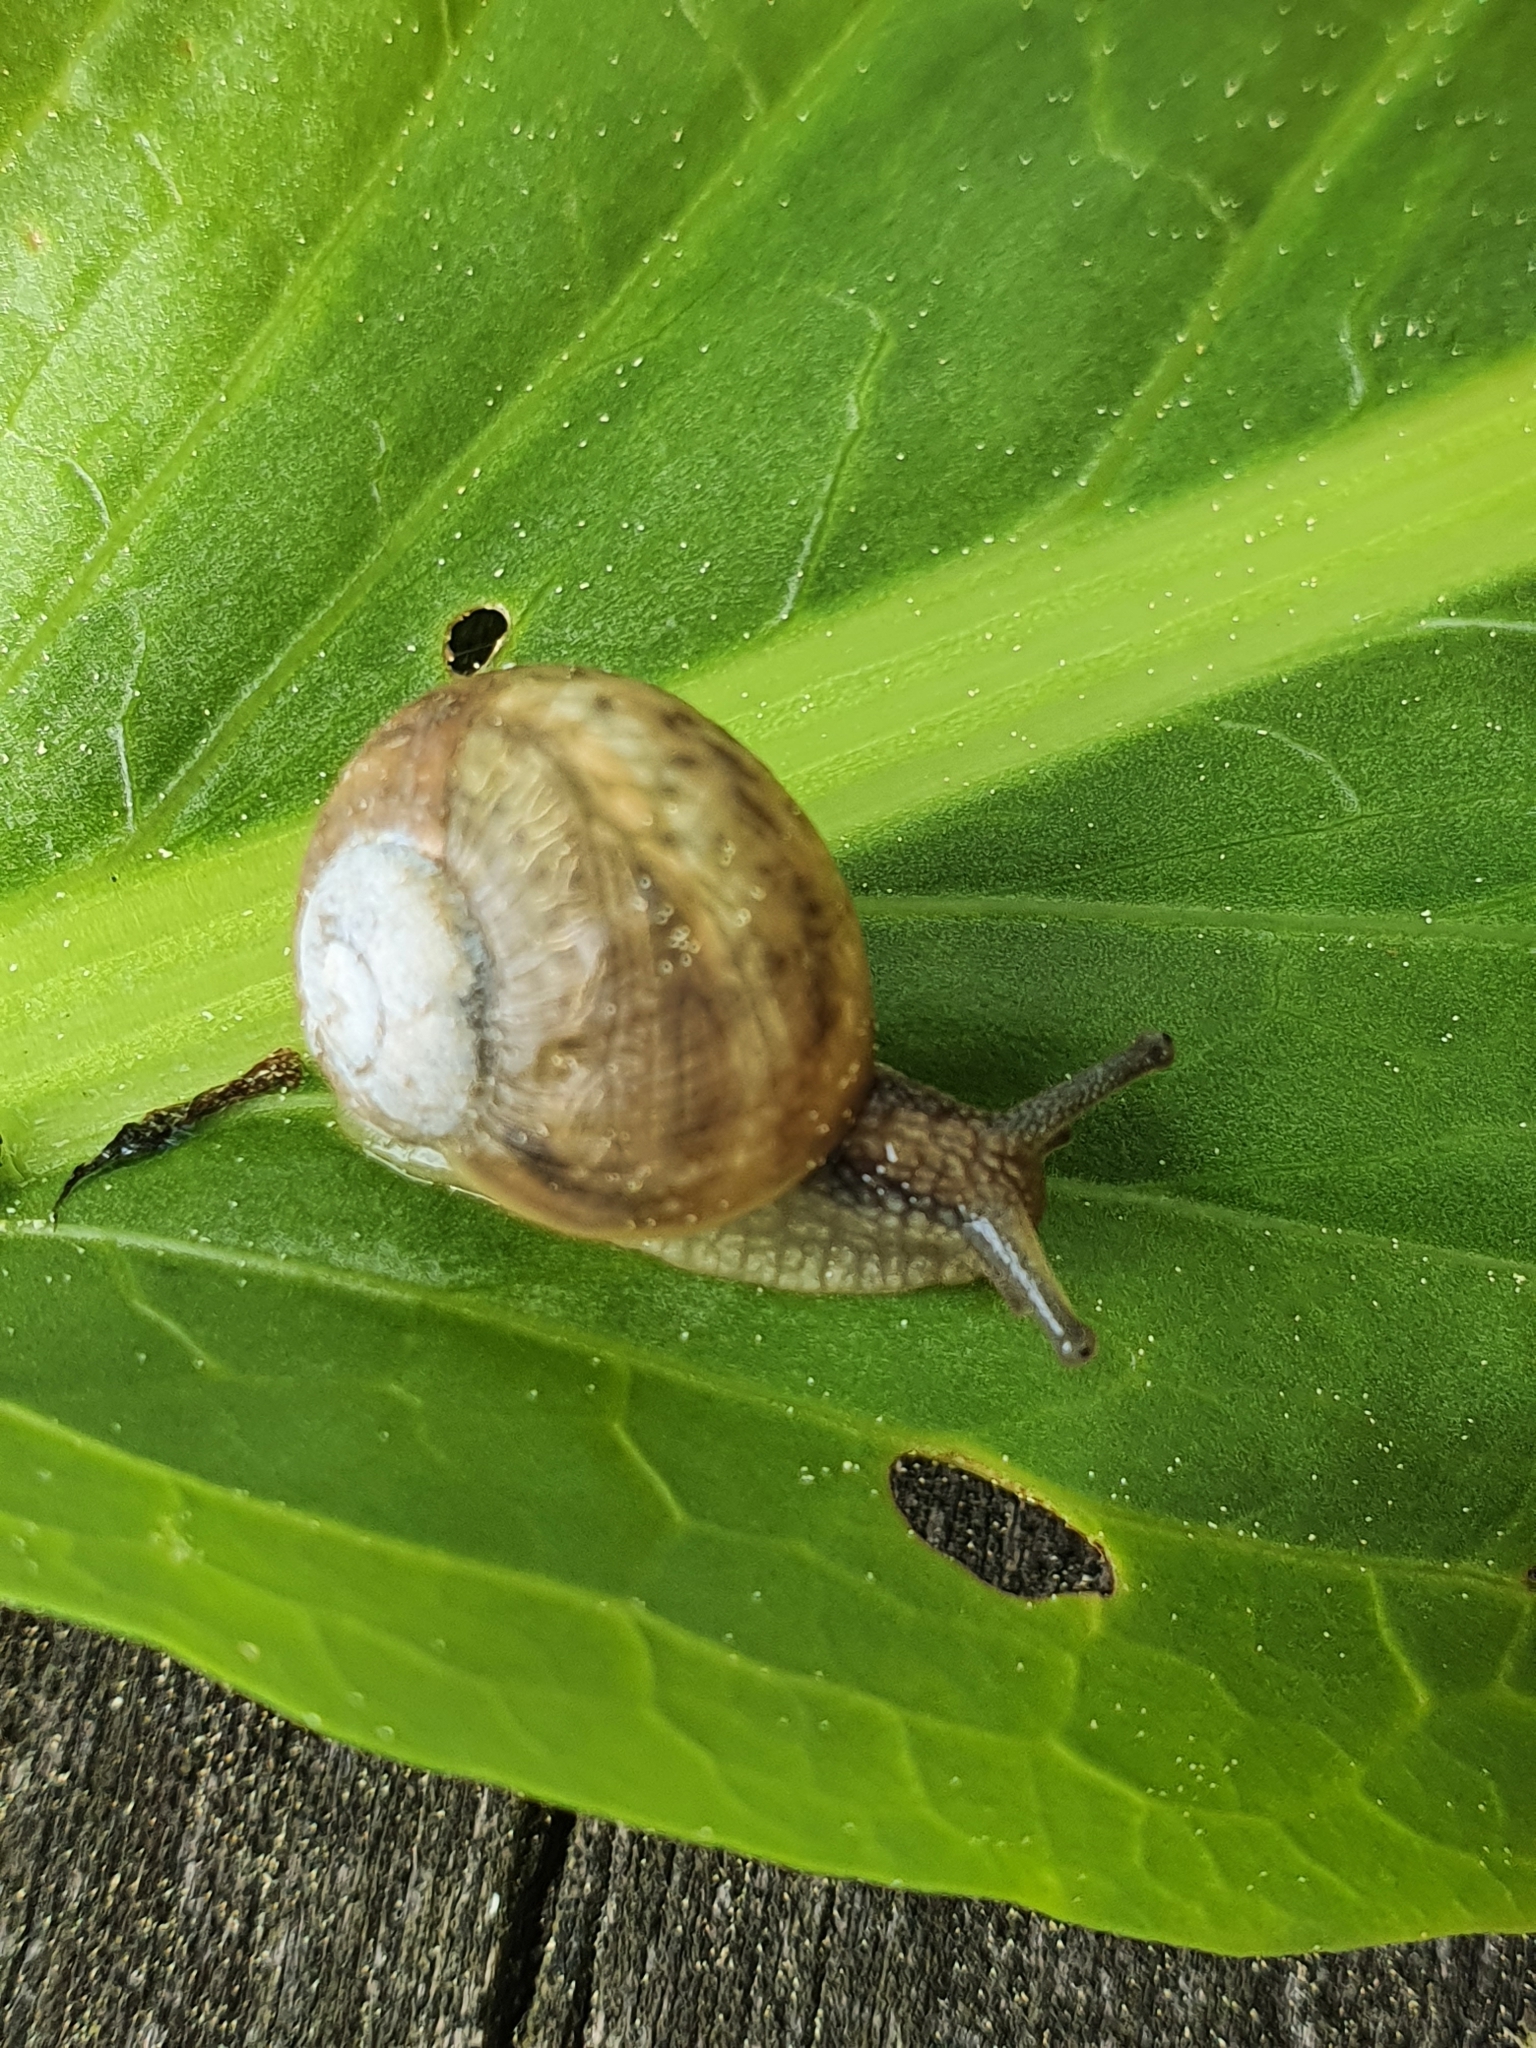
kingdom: Animalia
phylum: Mollusca
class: Gastropoda
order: Stylommatophora
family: Helicidae
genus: Helix
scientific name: Helix pomatia
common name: Roman snail
